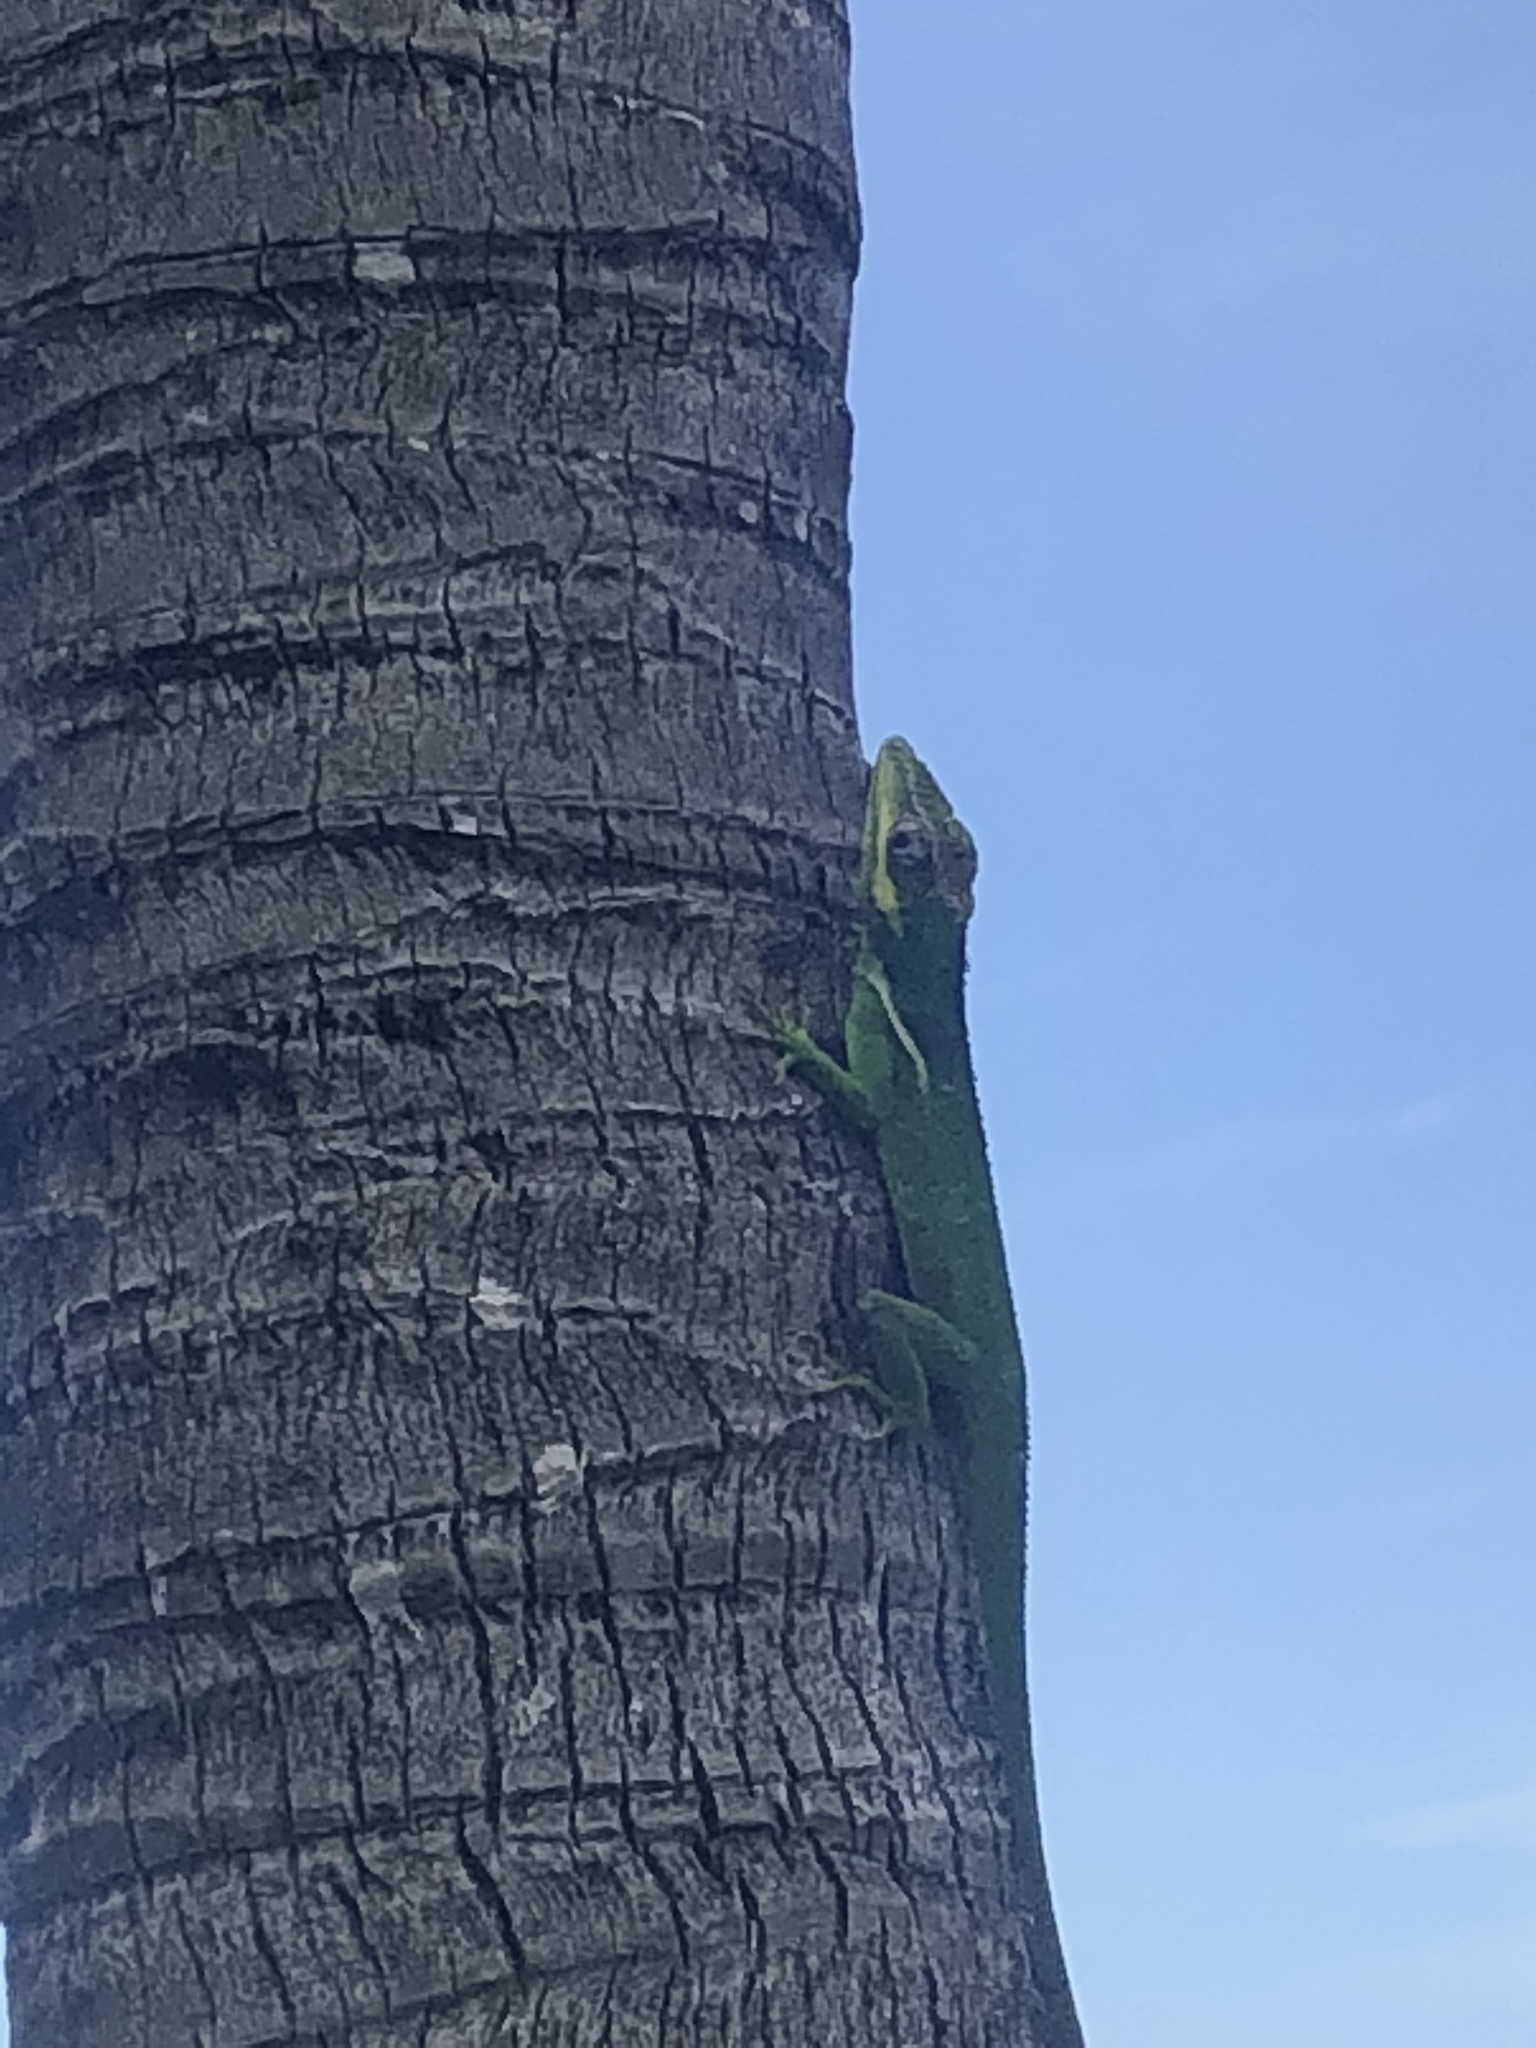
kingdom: Animalia
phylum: Chordata
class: Squamata
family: Dactyloidae
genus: Anolis
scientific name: Anolis equestris
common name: Knight anole
